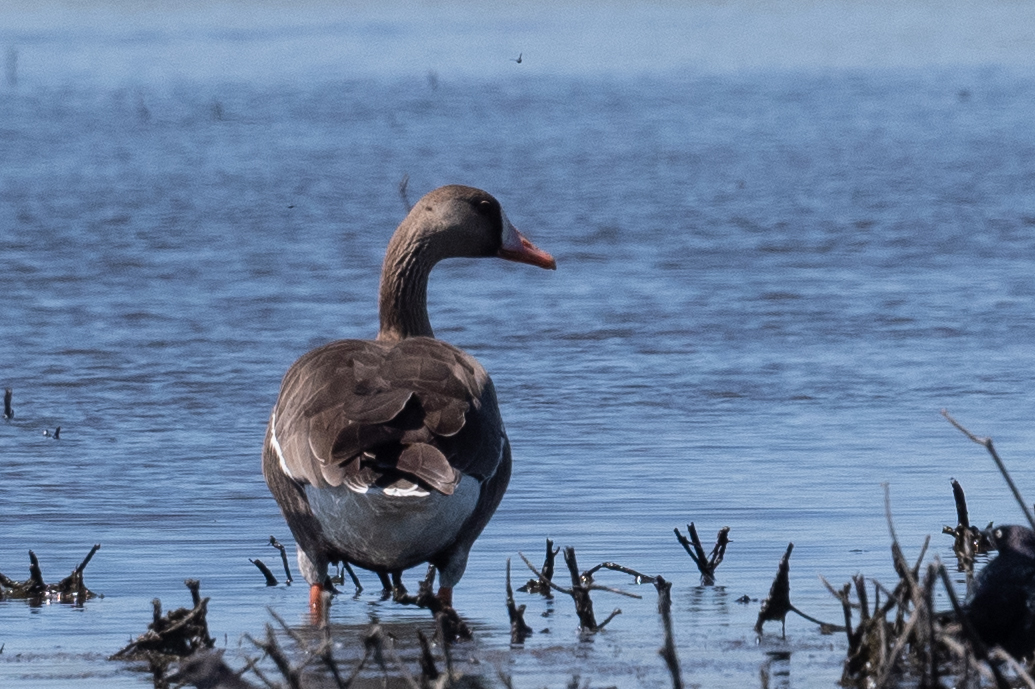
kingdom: Animalia
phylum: Chordata
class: Aves
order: Anseriformes
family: Anatidae
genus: Anser
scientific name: Anser albifrons
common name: Greater white-fronted goose
